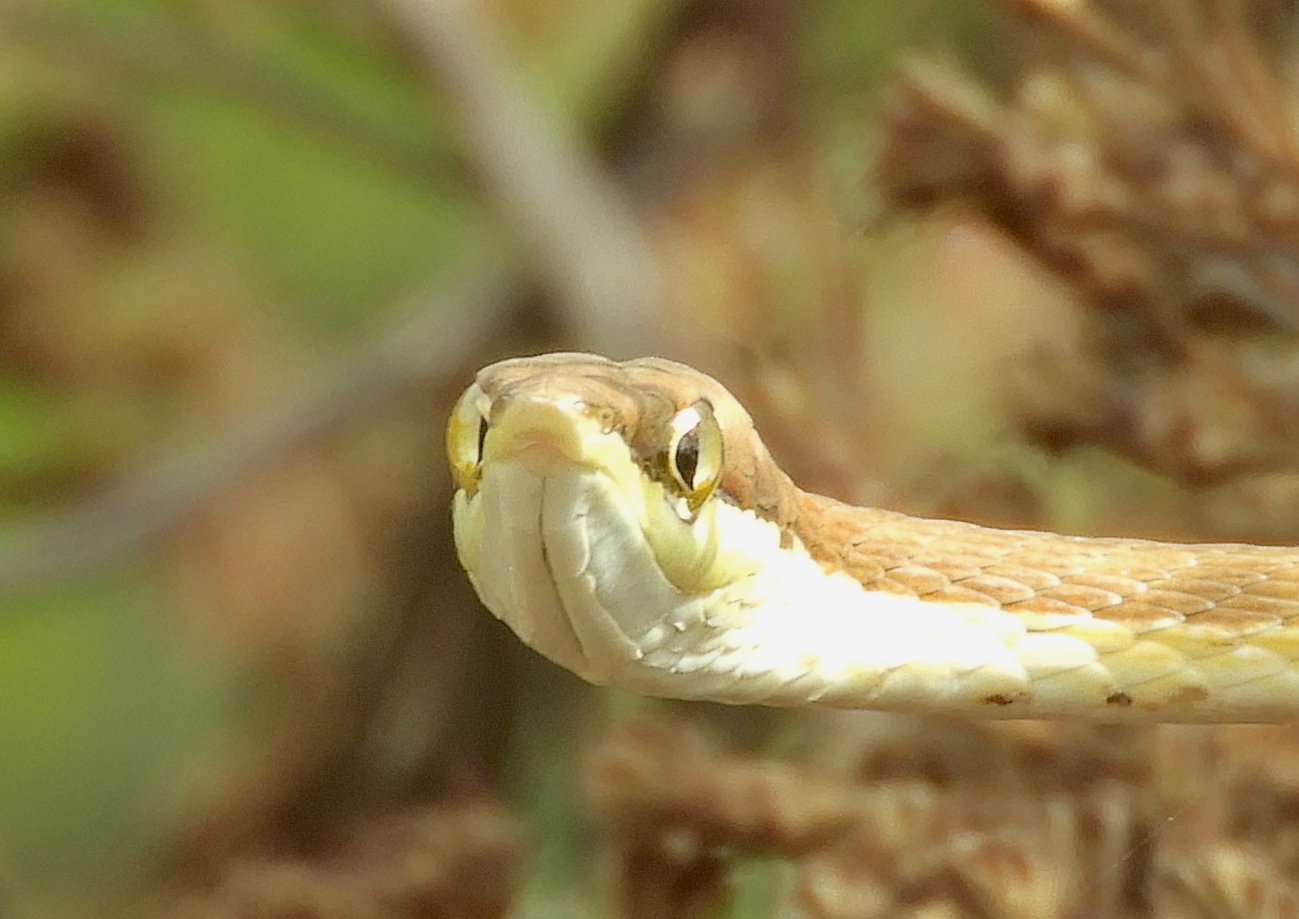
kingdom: Animalia
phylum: Chordata
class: Squamata
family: Colubridae
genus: Oxybelis
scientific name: Oxybelis microphthalmus
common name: Thrornscrub vine snake
